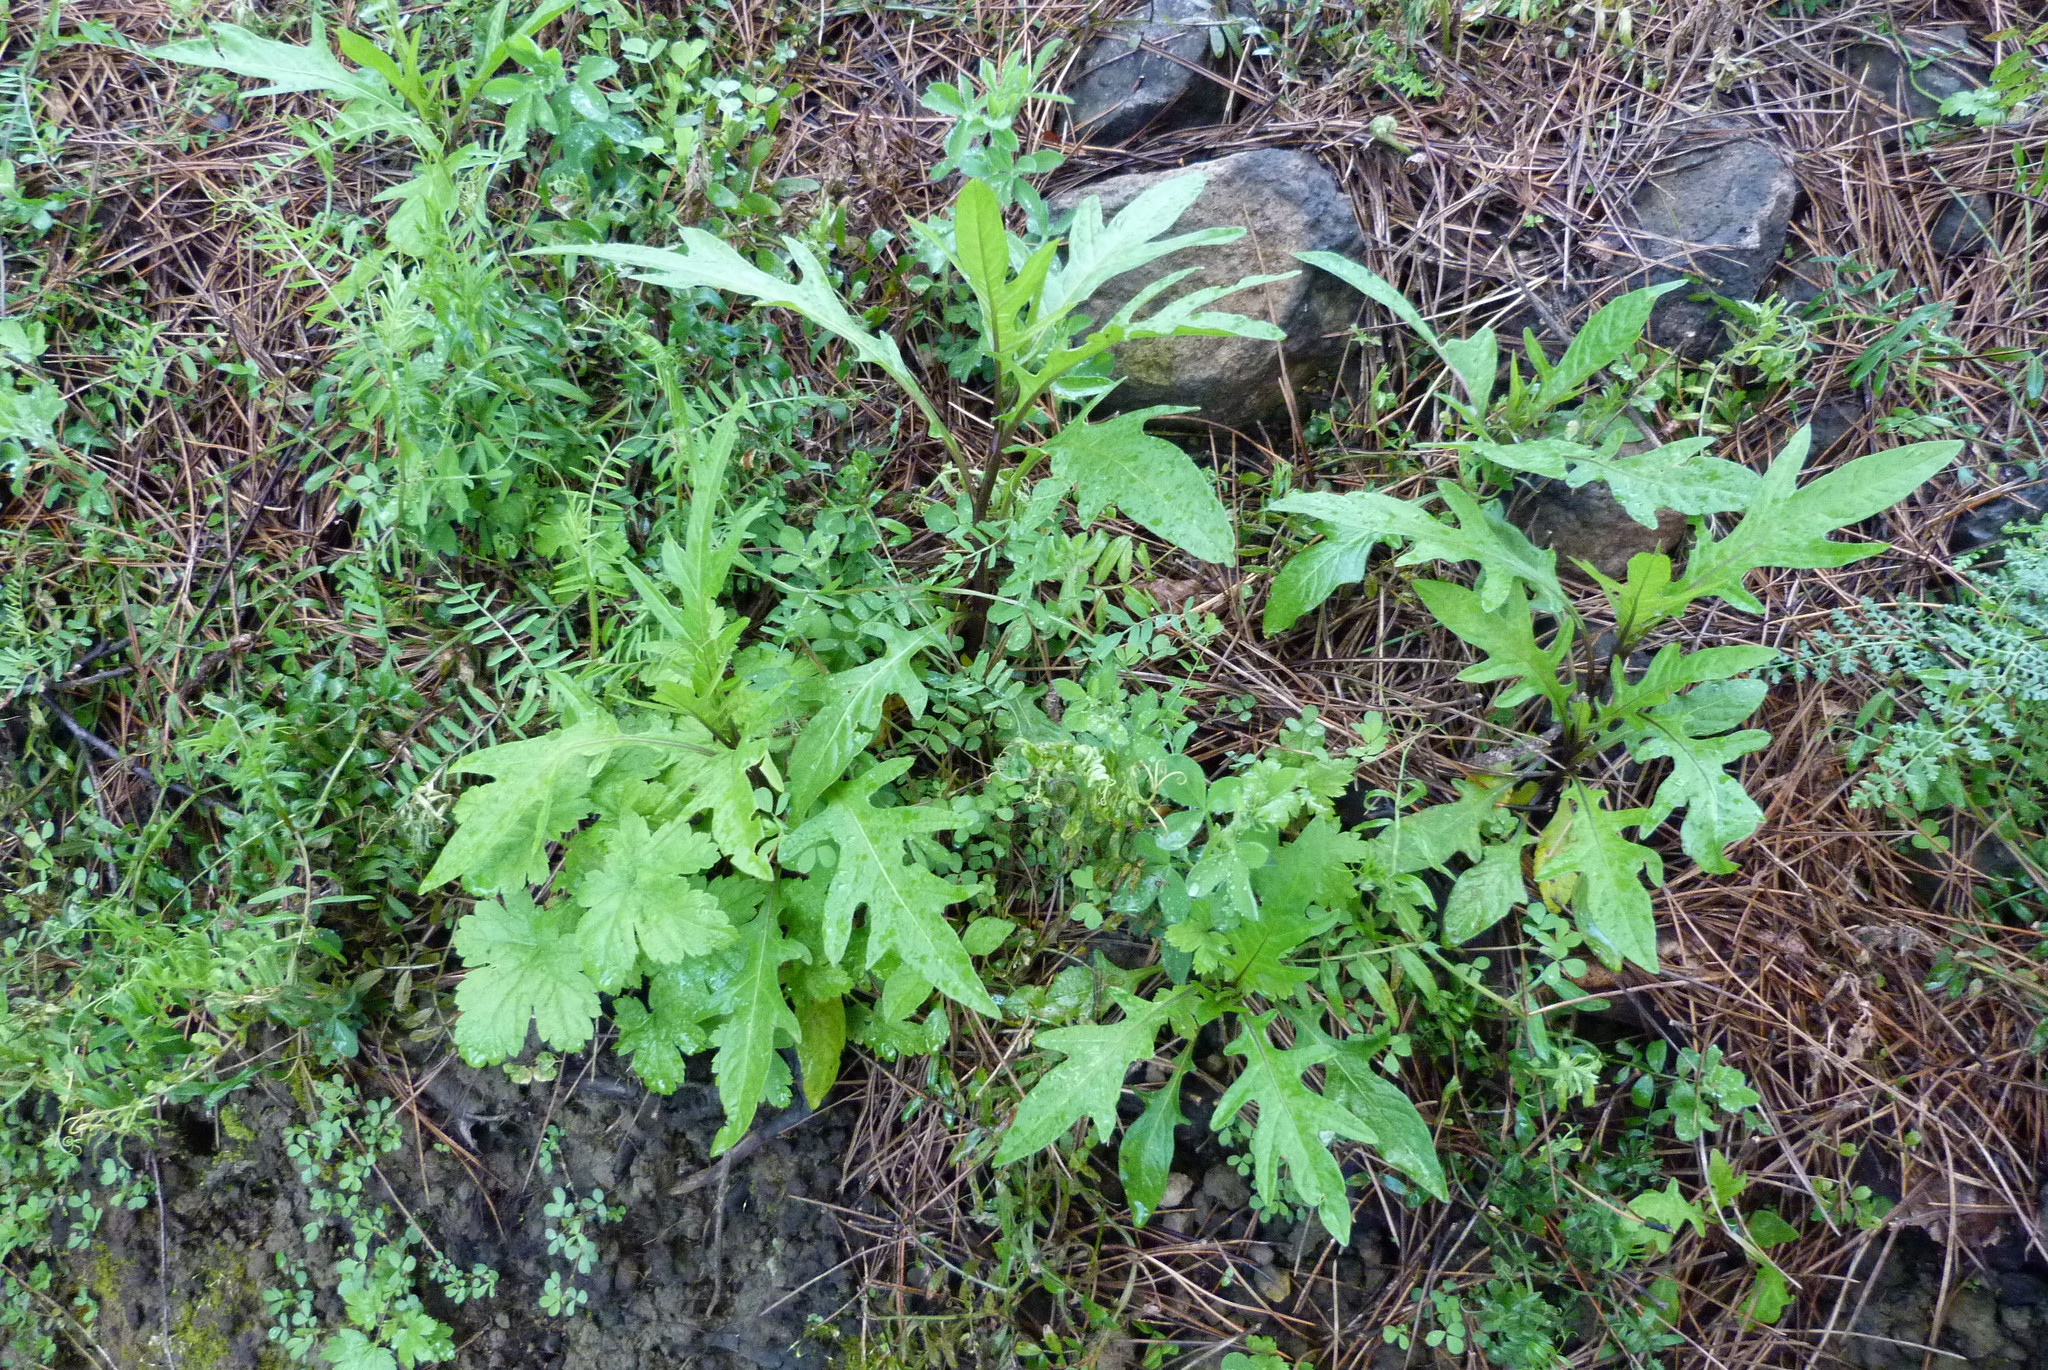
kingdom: Plantae
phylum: Tracheophyta
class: Magnoliopsida
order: Solanales
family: Solanaceae
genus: Solanum
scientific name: Solanum laciniatum
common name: Kangaroo-apple
